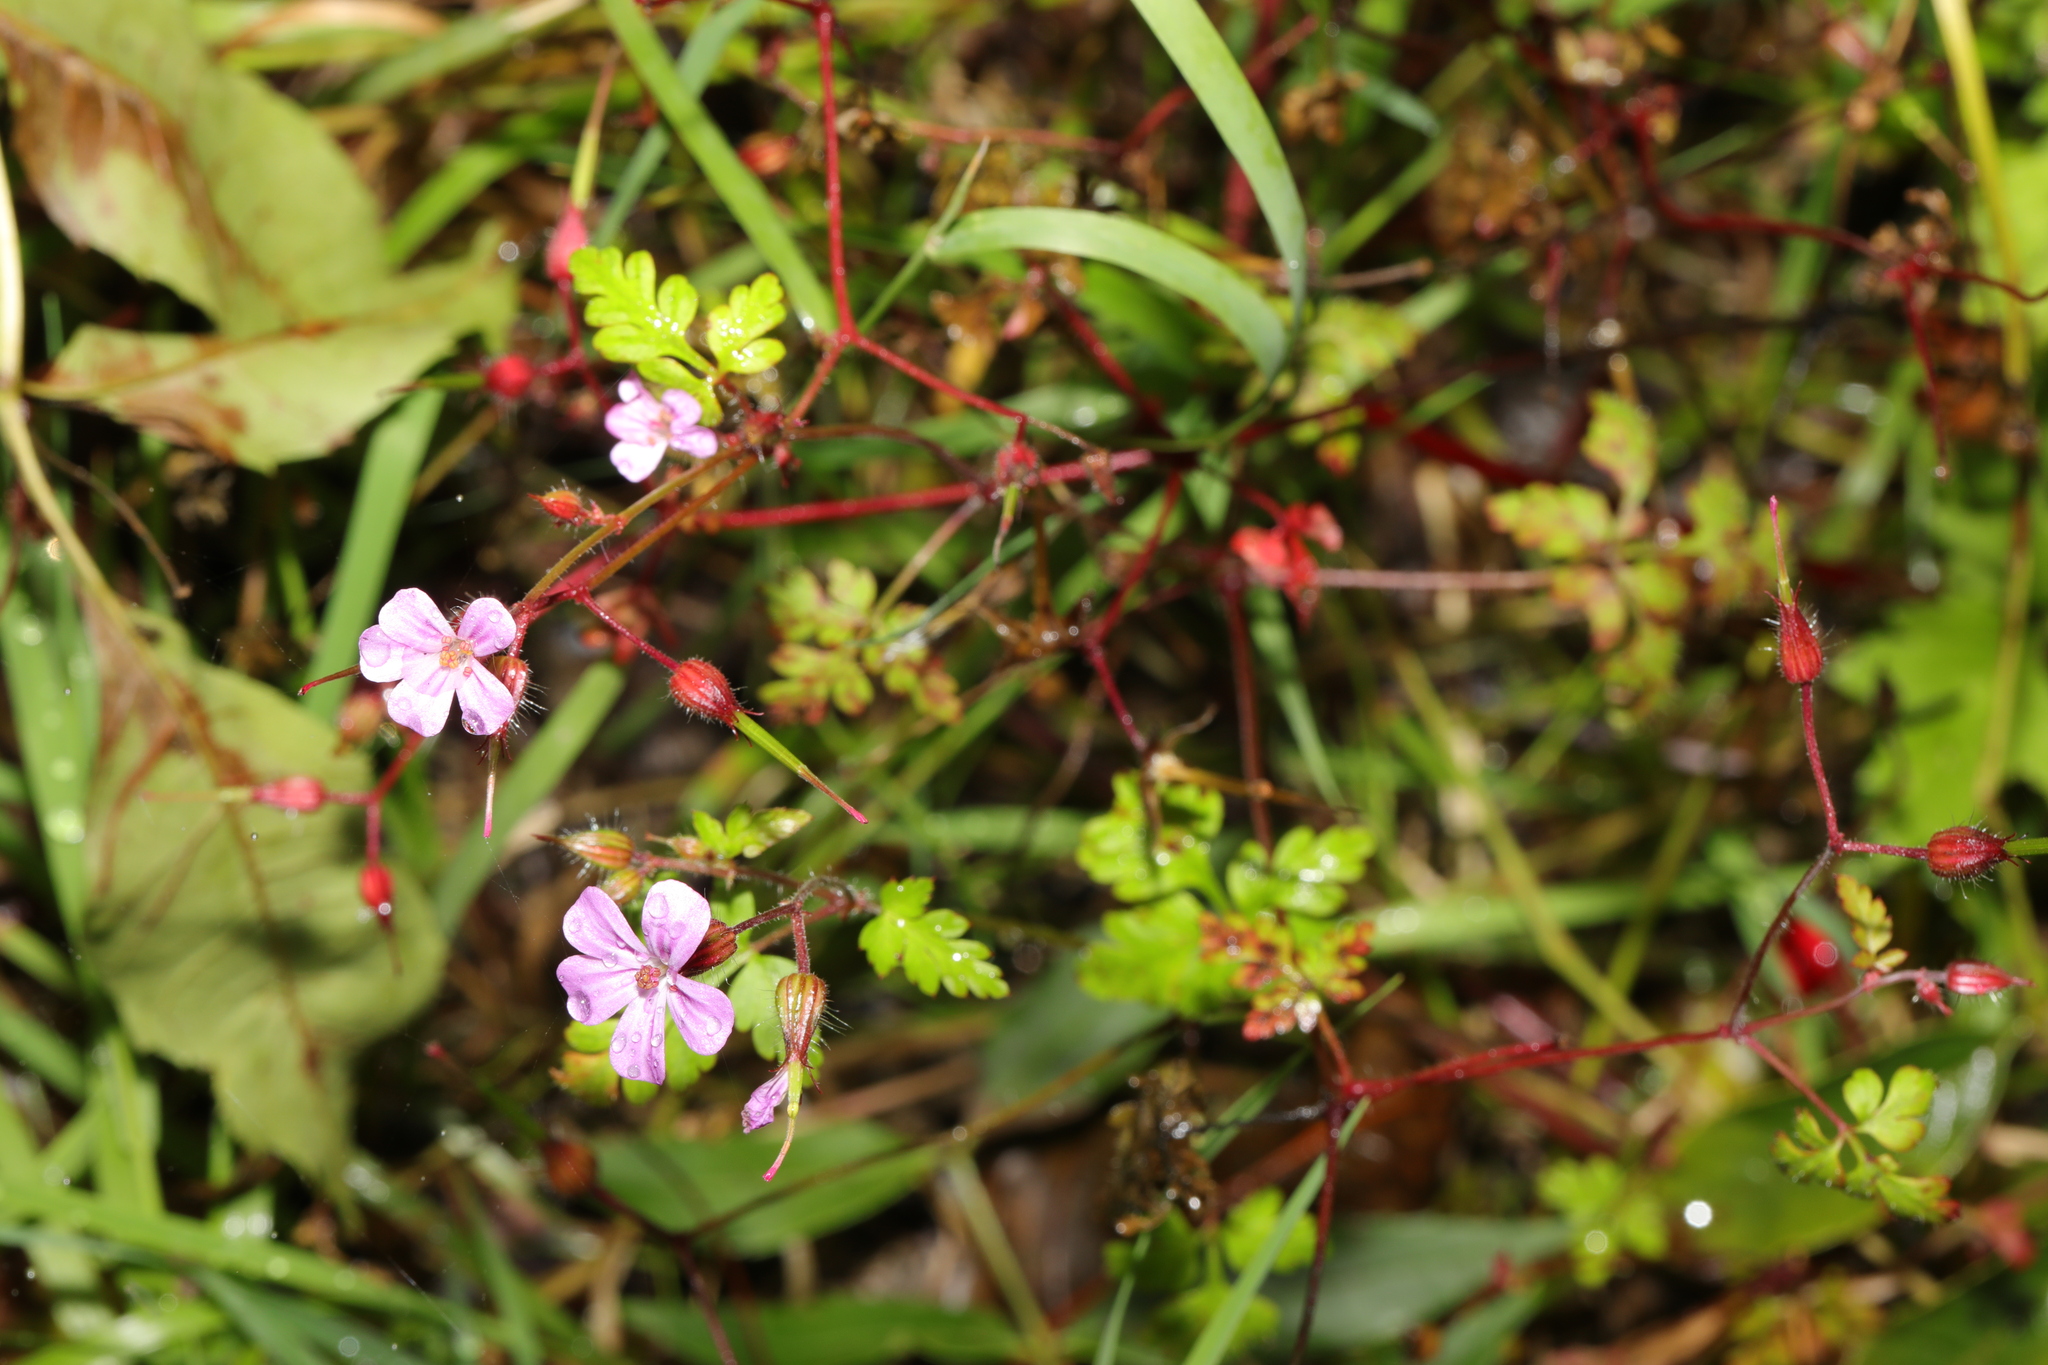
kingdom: Plantae
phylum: Tracheophyta
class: Magnoliopsida
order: Geraniales
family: Geraniaceae
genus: Geranium
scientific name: Geranium robertianum
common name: Herb-robert
